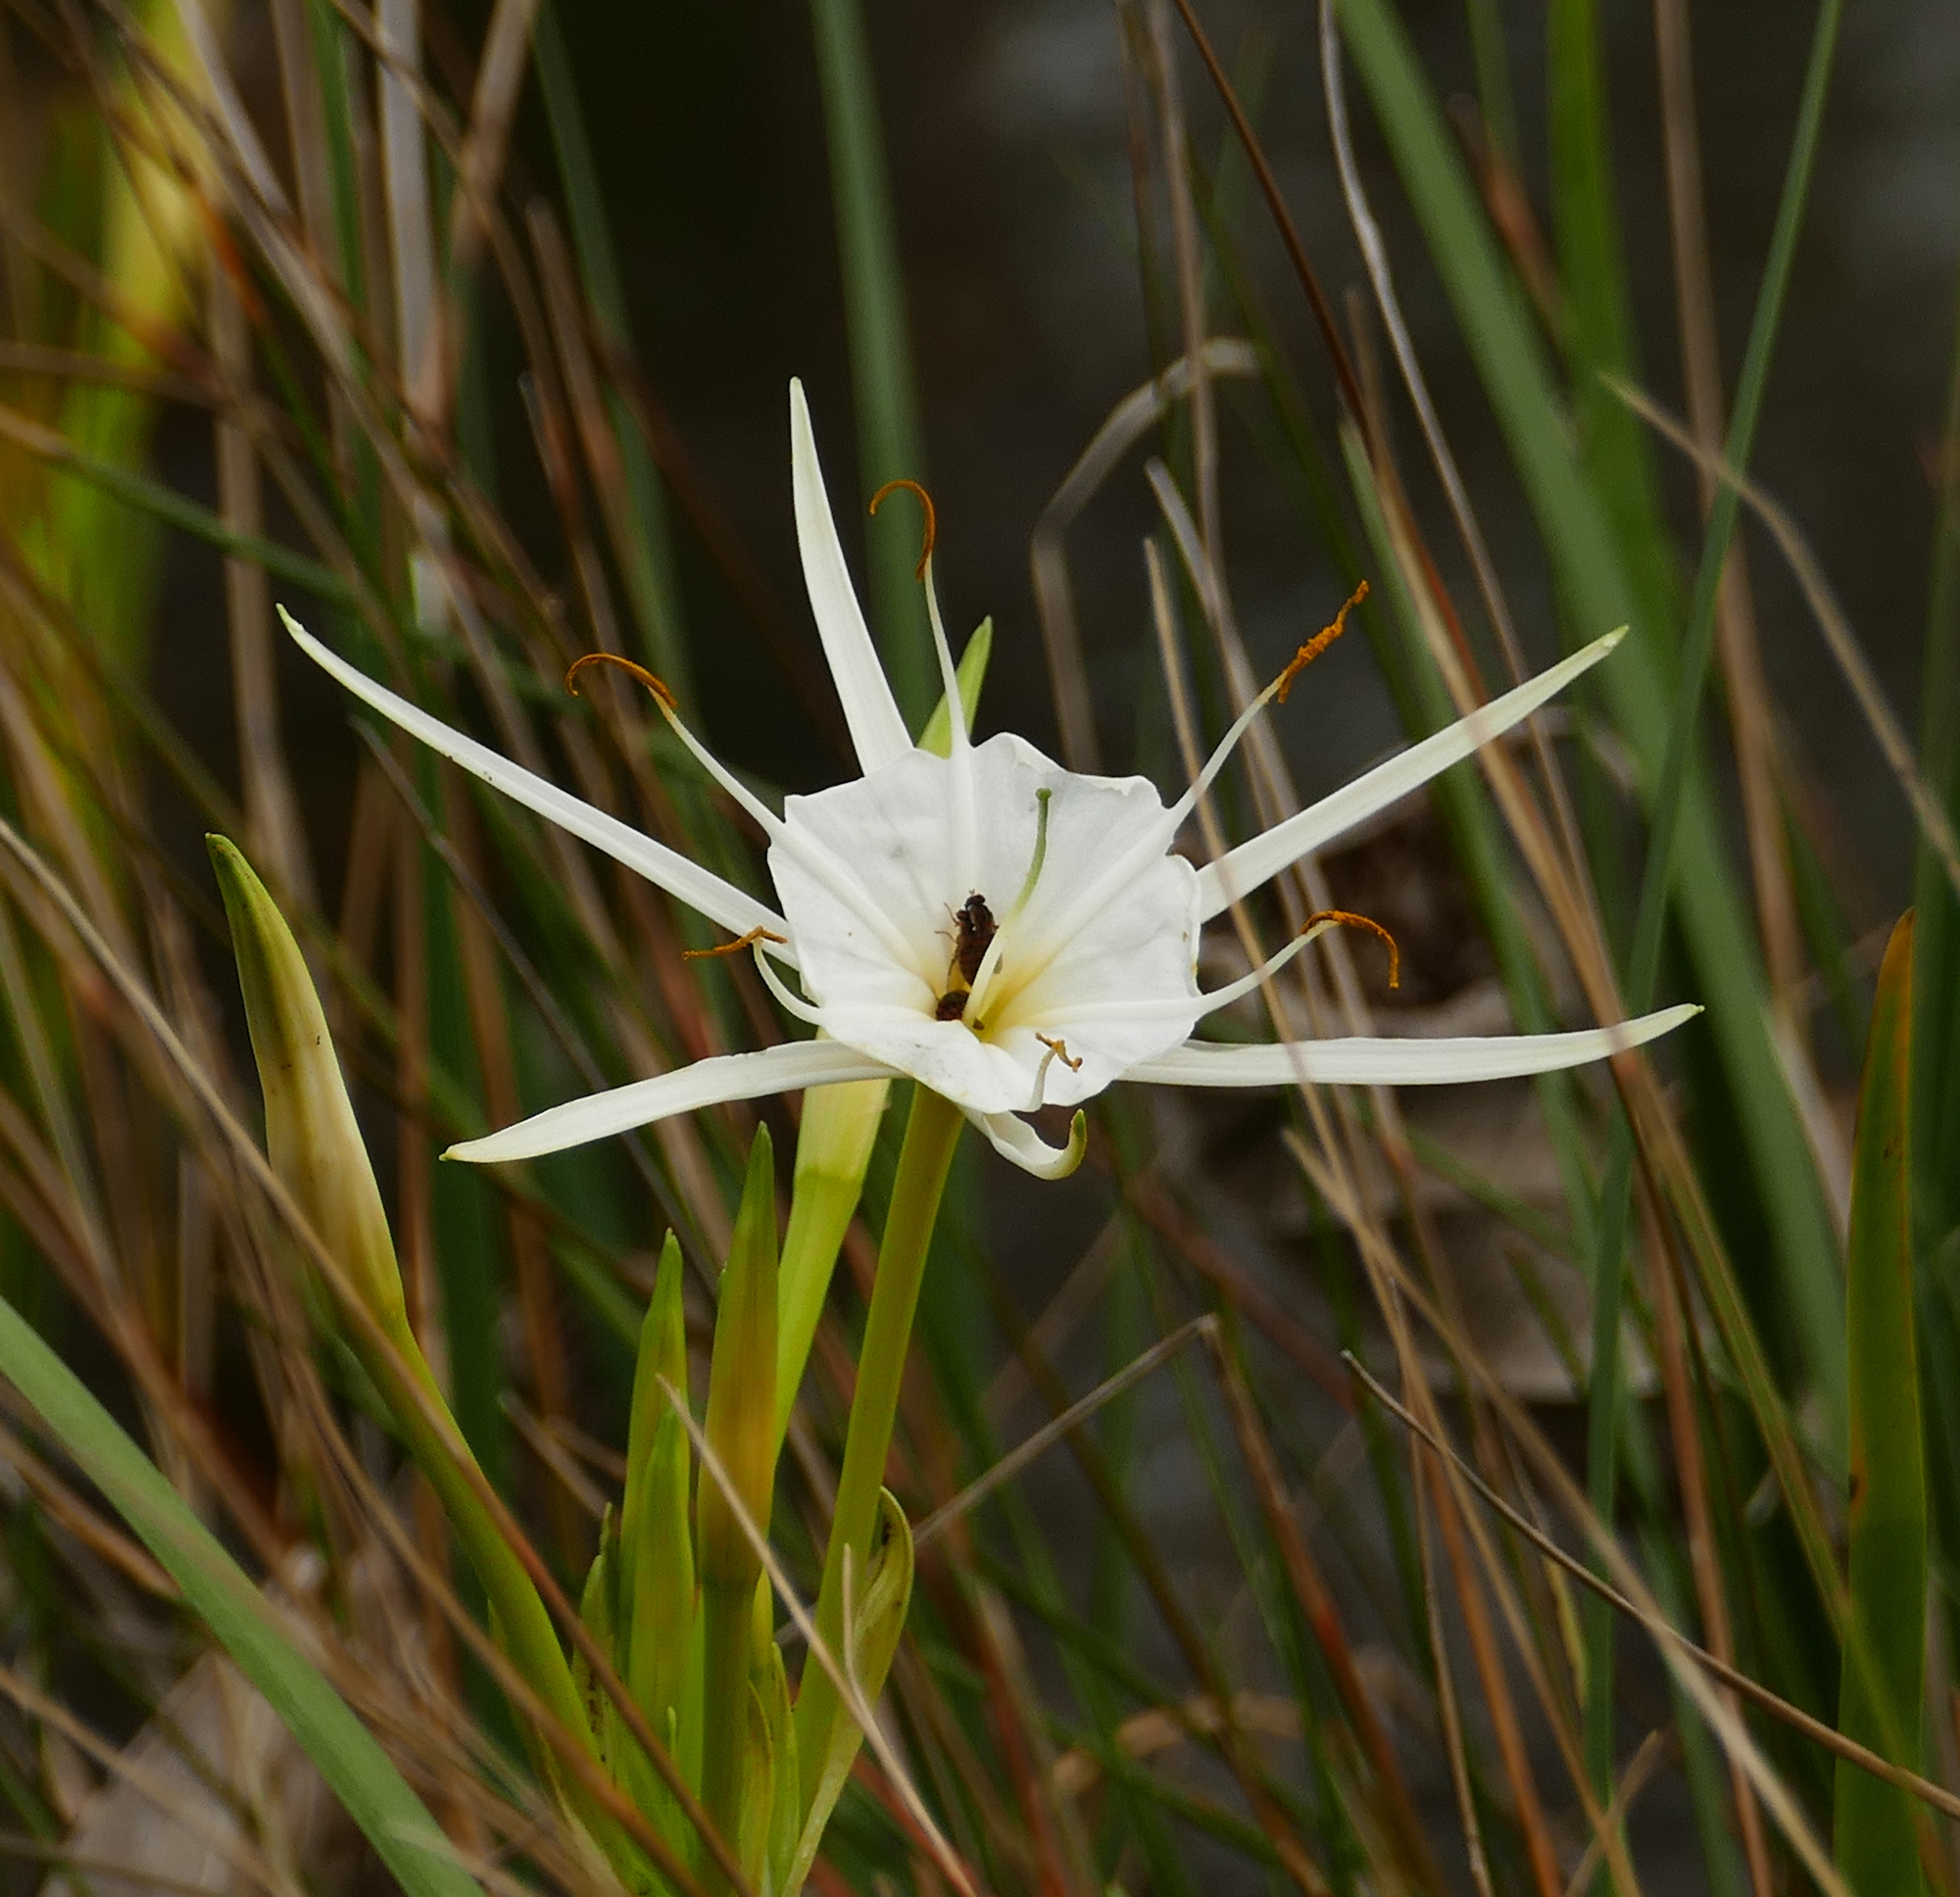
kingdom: Plantae
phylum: Tracheophyta
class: Liliopsida
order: Asparagales
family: Amaryllidaceae
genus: Hymenocallis
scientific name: Hymenocallis liriosme
